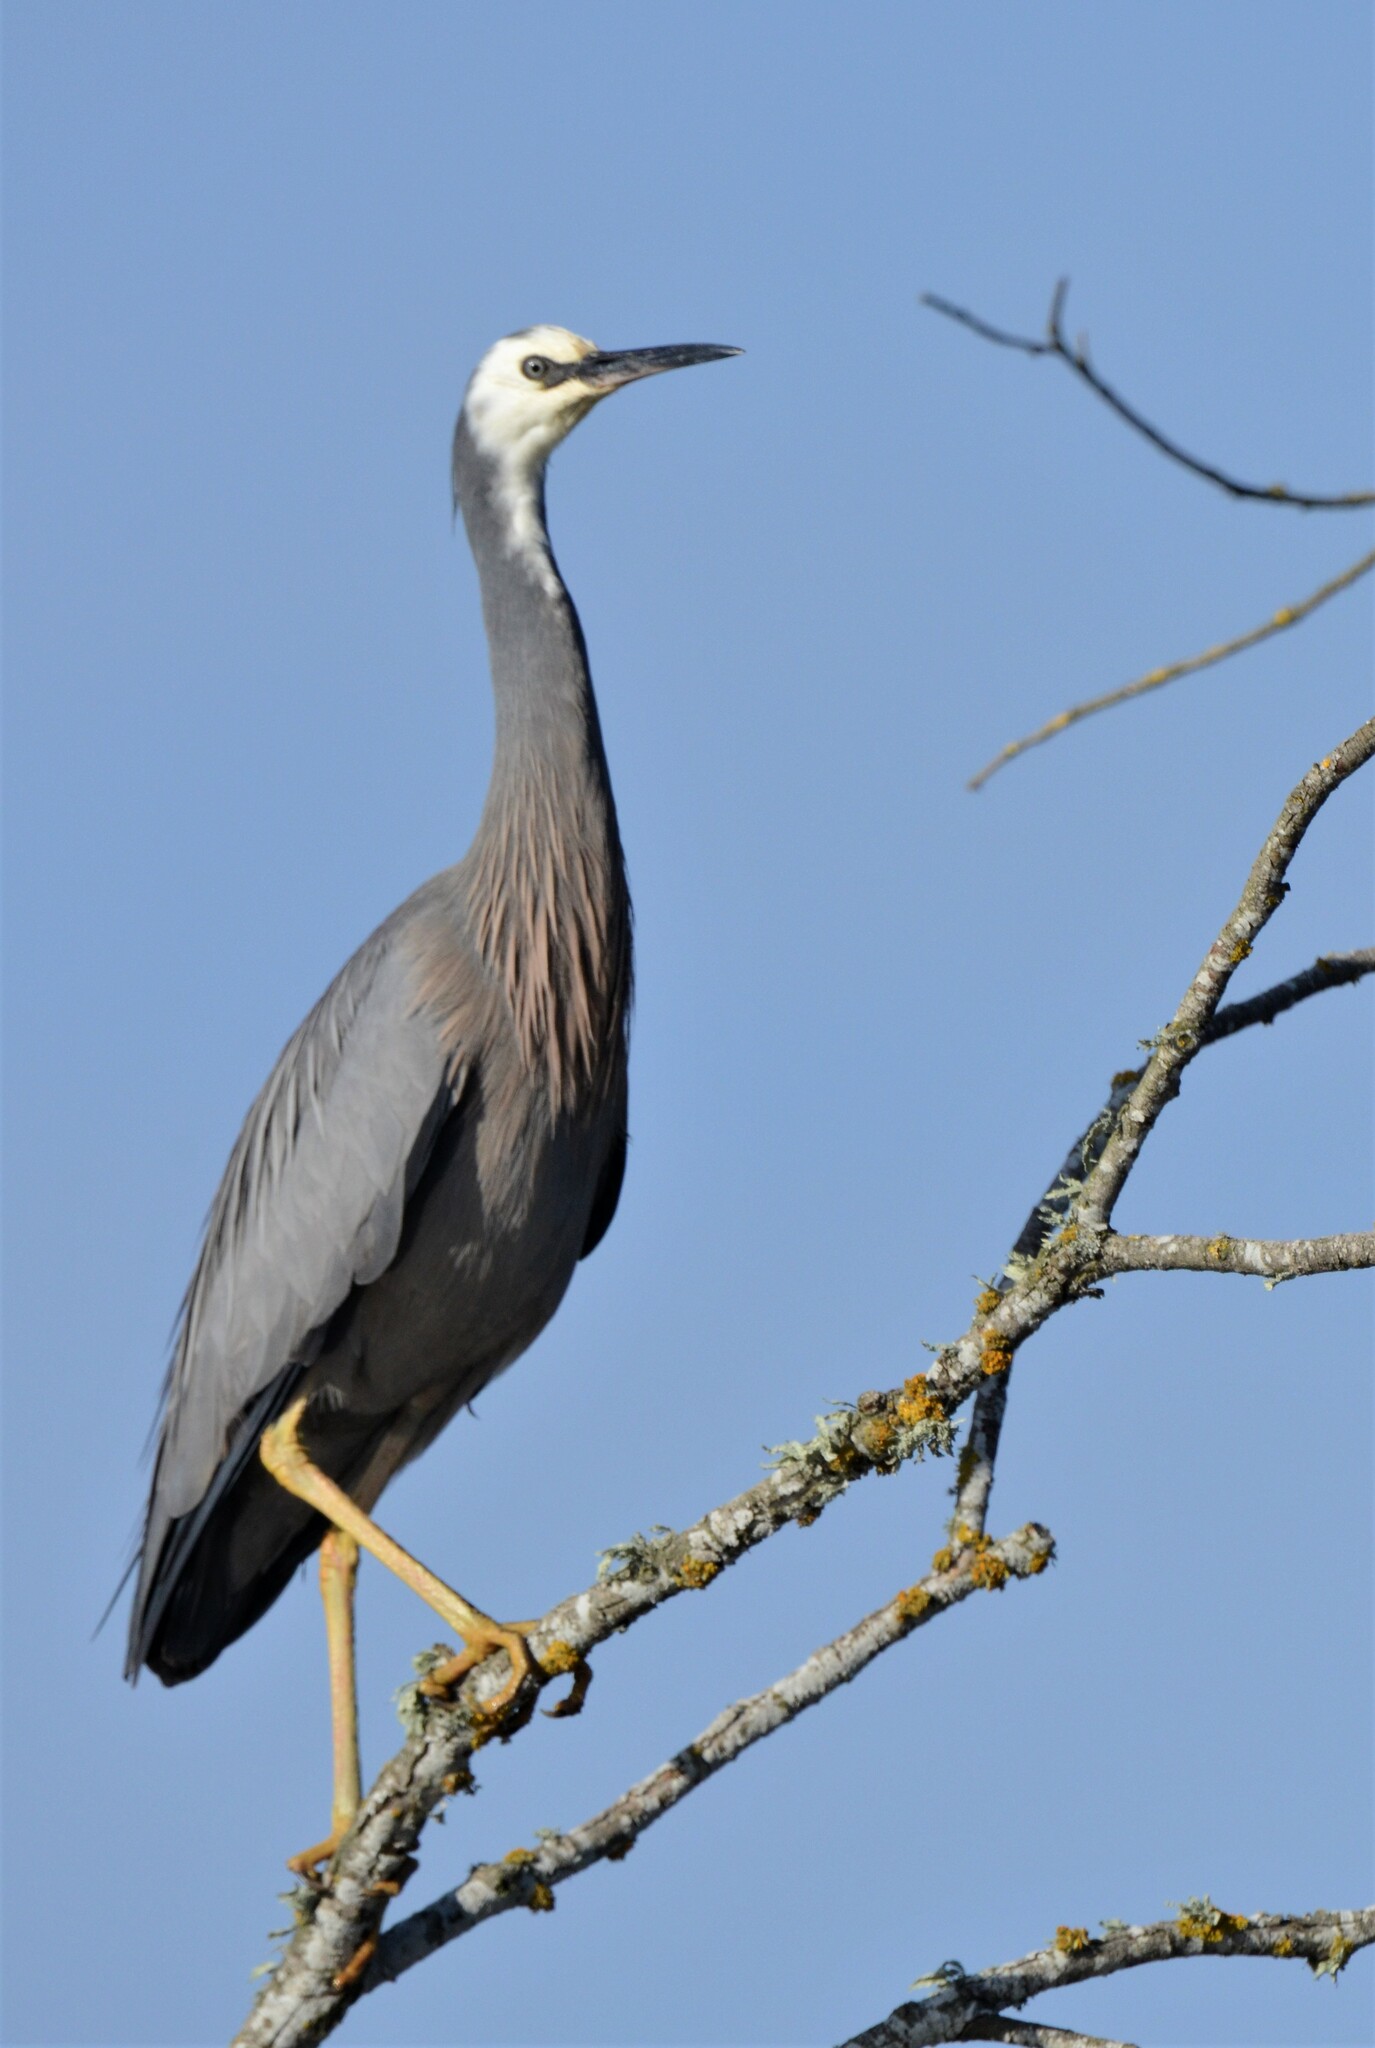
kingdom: Animalia
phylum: Chordata
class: Aves
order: Pelecaniformes
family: Ardeidae
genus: Egretta
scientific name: Egretta novaehollandiae
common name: White-faced heron
